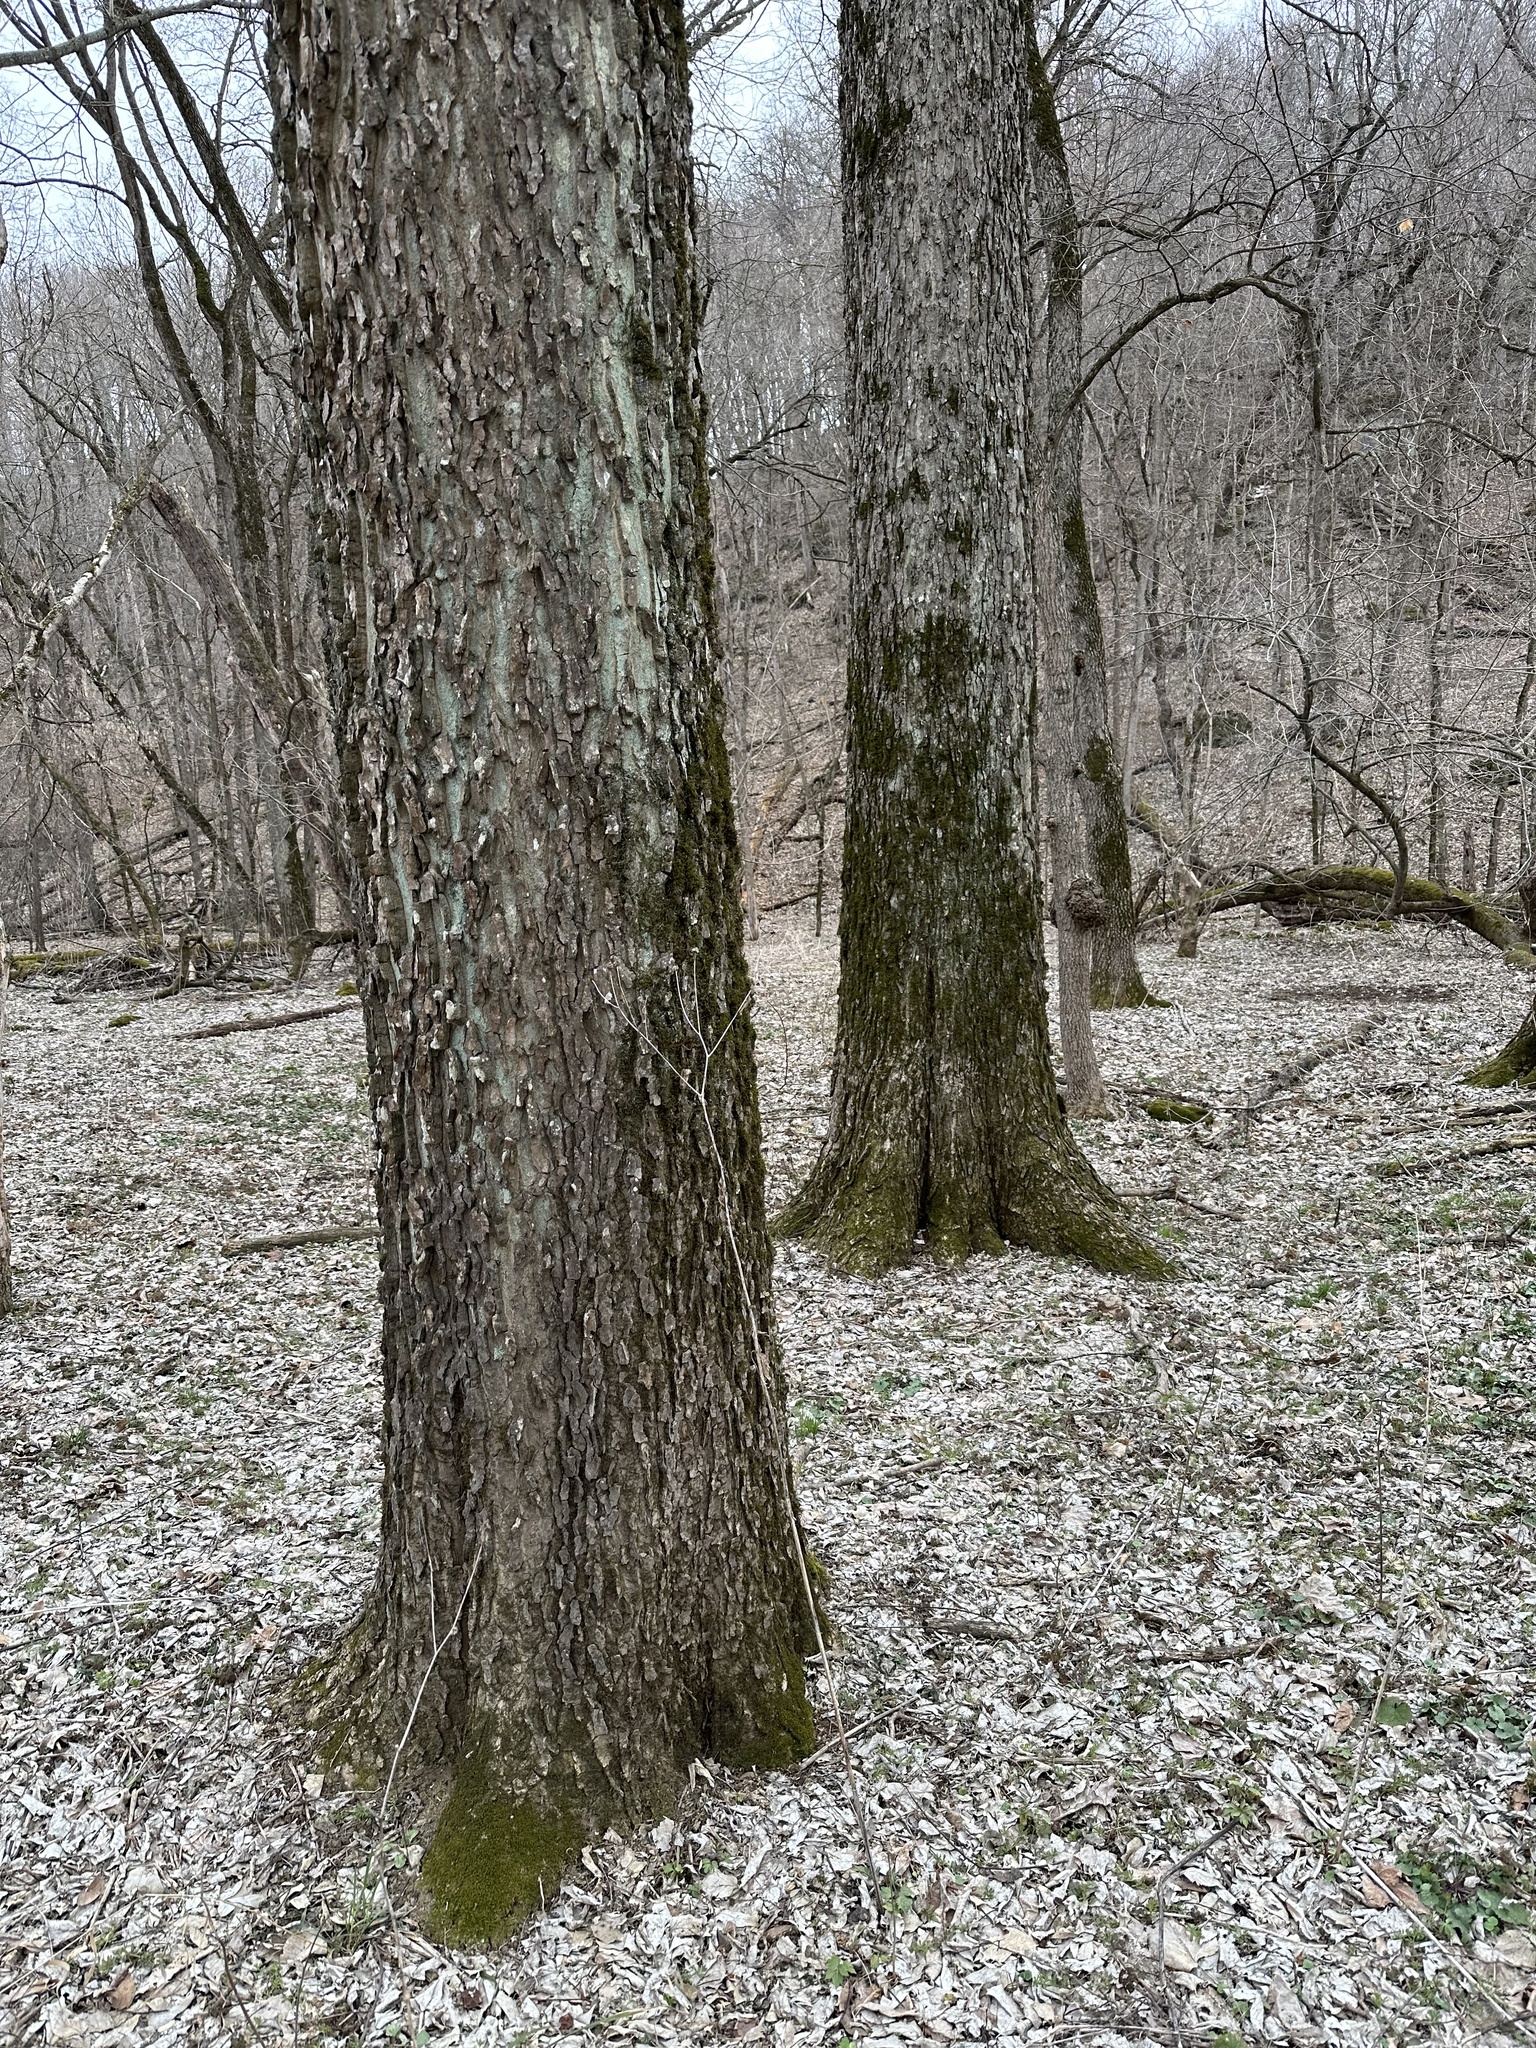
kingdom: Plantae
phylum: Tracheophyta
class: Magnoliopsida
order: Rosales
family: Cannabaceae
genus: Celtis
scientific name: Celtis occidentalis
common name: Common hackberry
